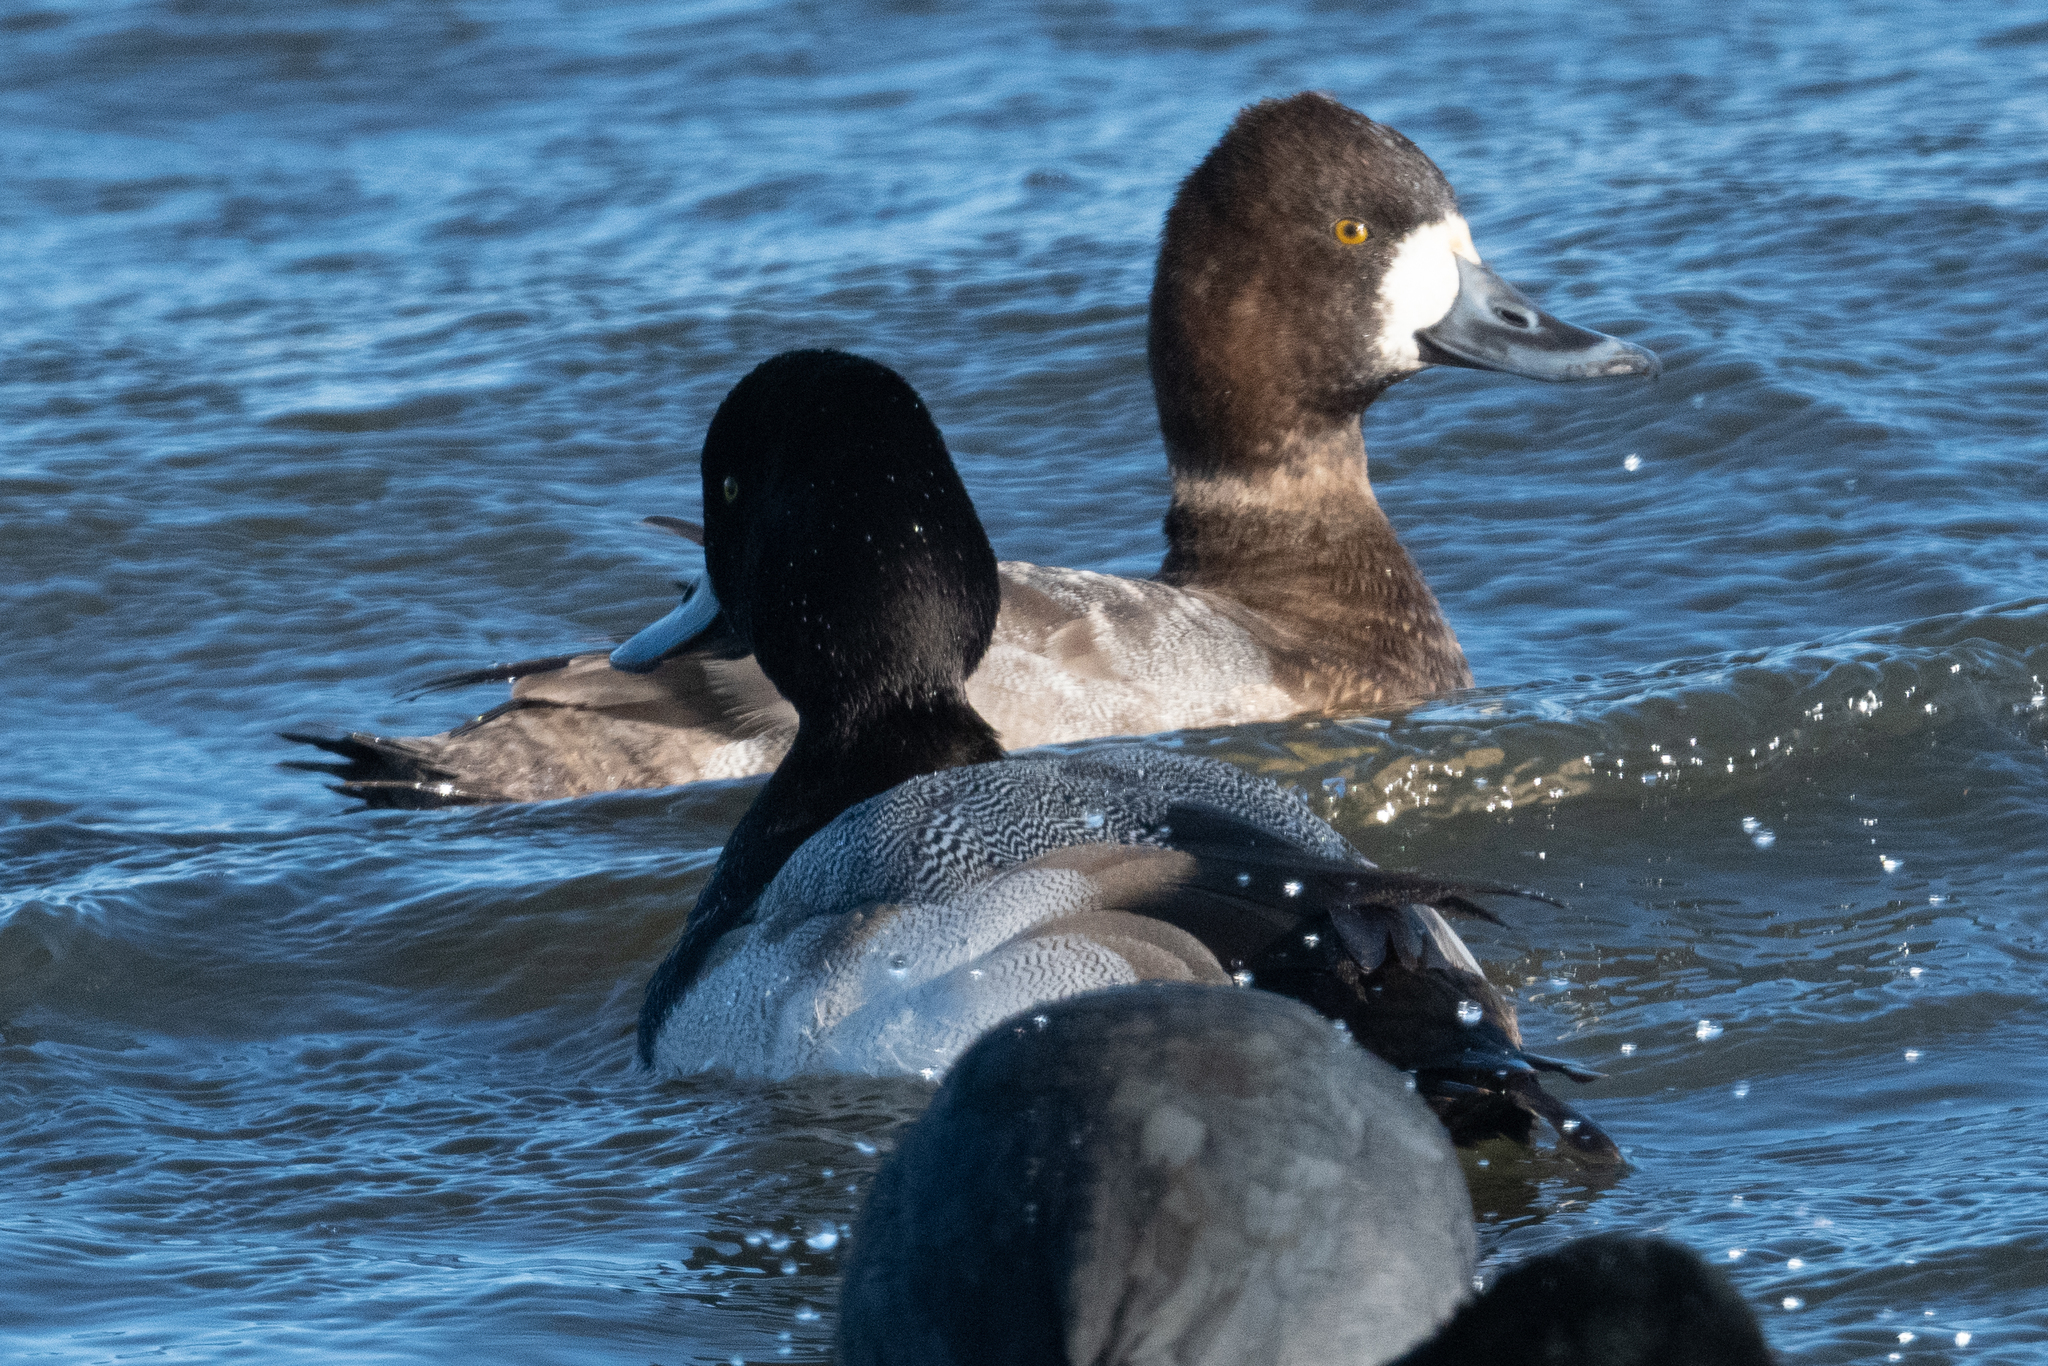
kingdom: Animalia
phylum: Chordata
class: Aves
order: Anseriformes
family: Anatidae
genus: Aythya
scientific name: Aythya affinis
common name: Lesser scaup
